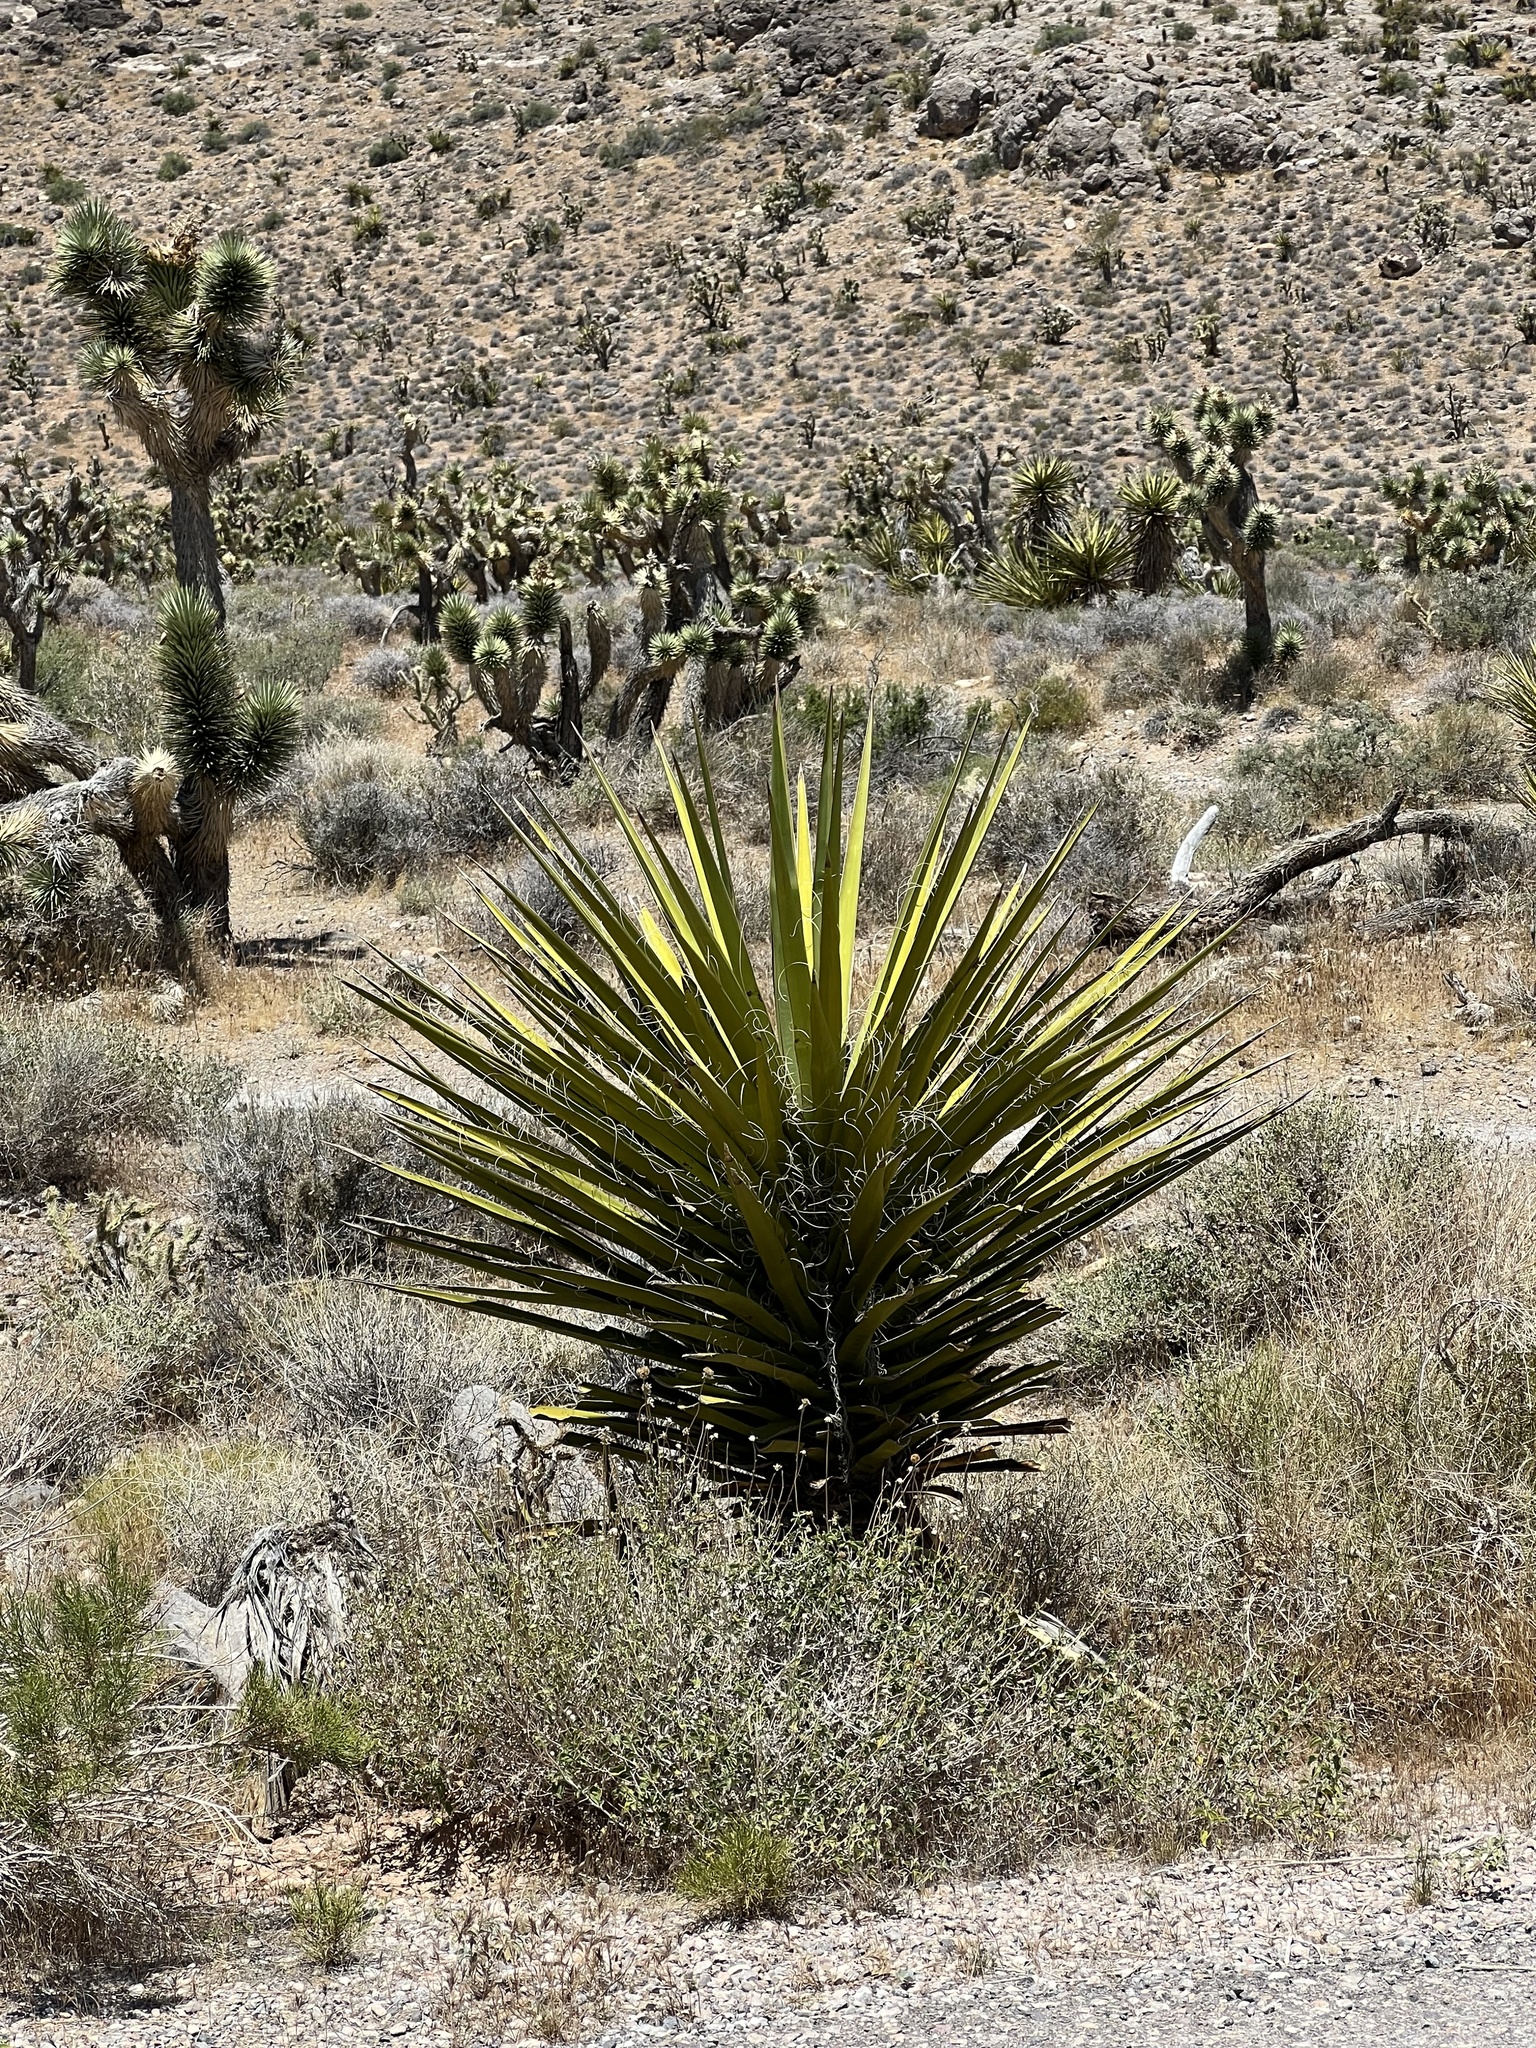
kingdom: Plantae
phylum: Tracheophyta
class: Liliopsida
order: Asparagales
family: Asparagaceae
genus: Yucca
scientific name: Yucca schidigera
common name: Mojave yucca
